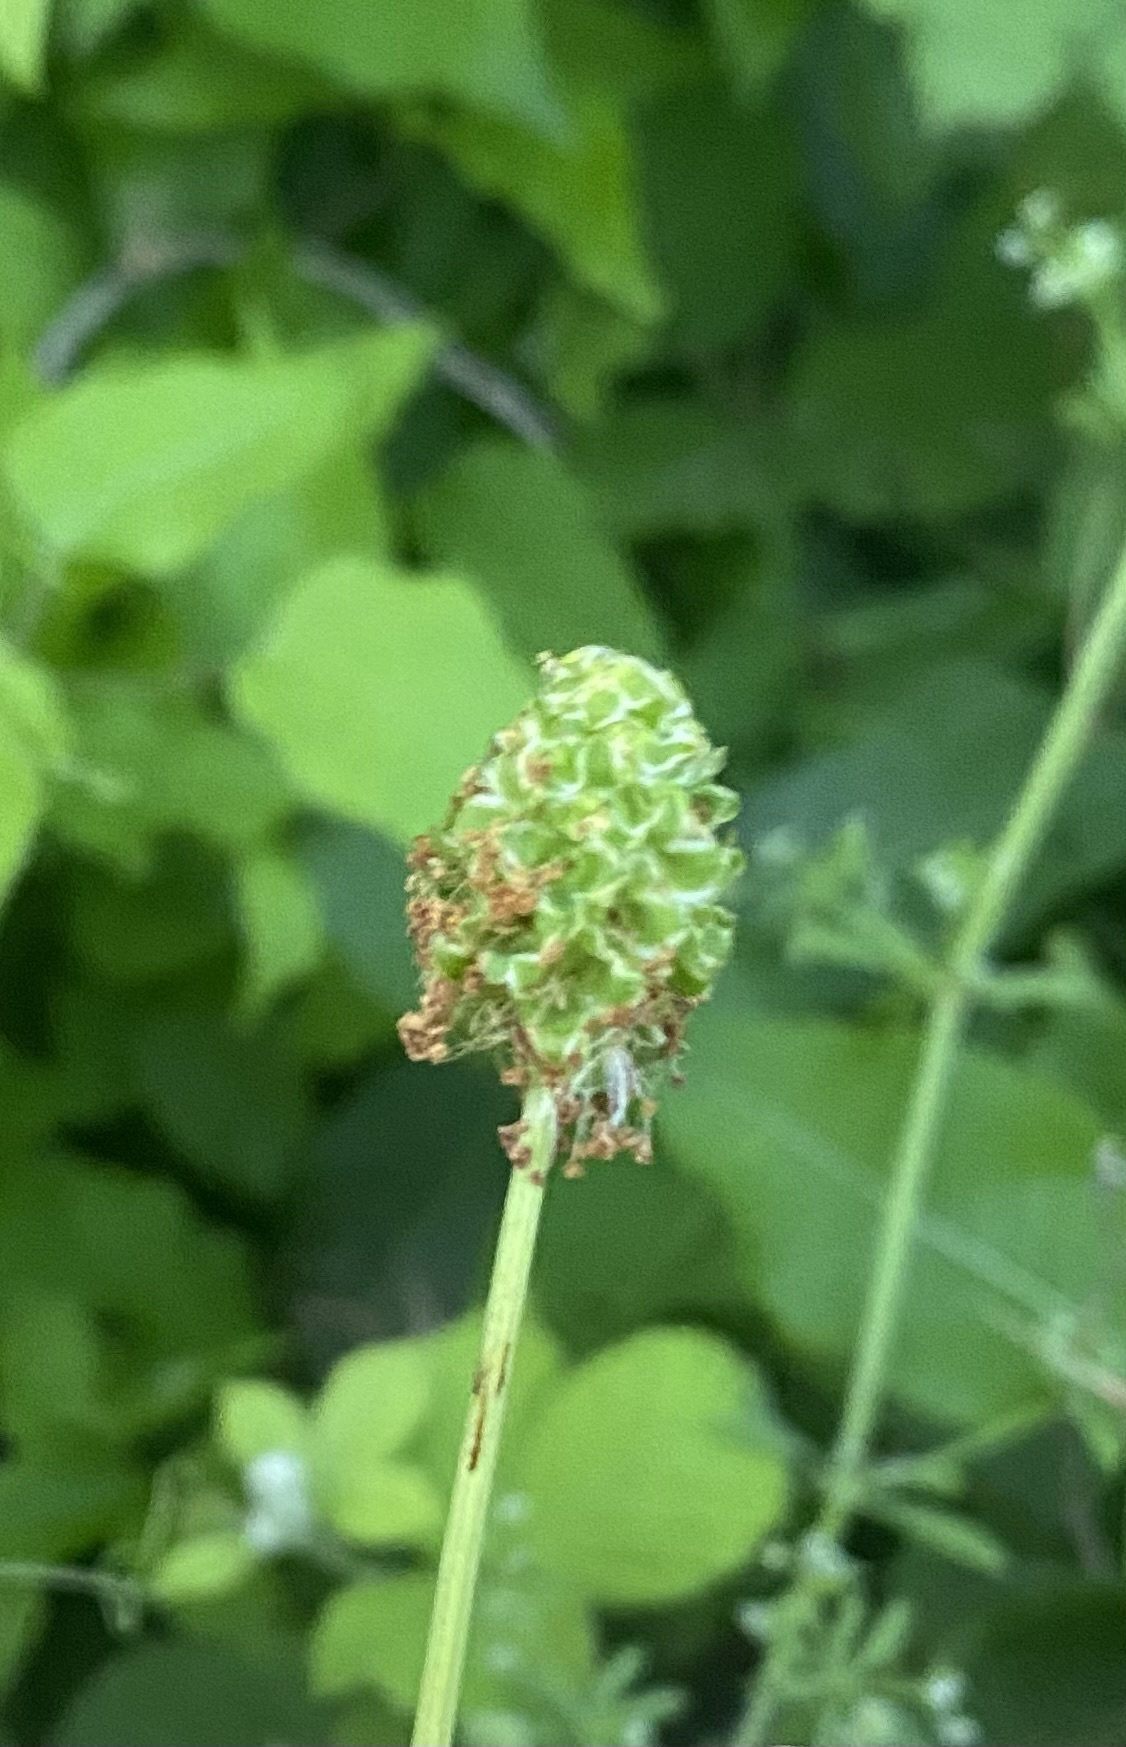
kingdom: Plantae
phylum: Tracheophyta
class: Magnoliopsida
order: Rosales
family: Rosaceae
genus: Poterium
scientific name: Poterium sanguisorba
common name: Salad burnet
